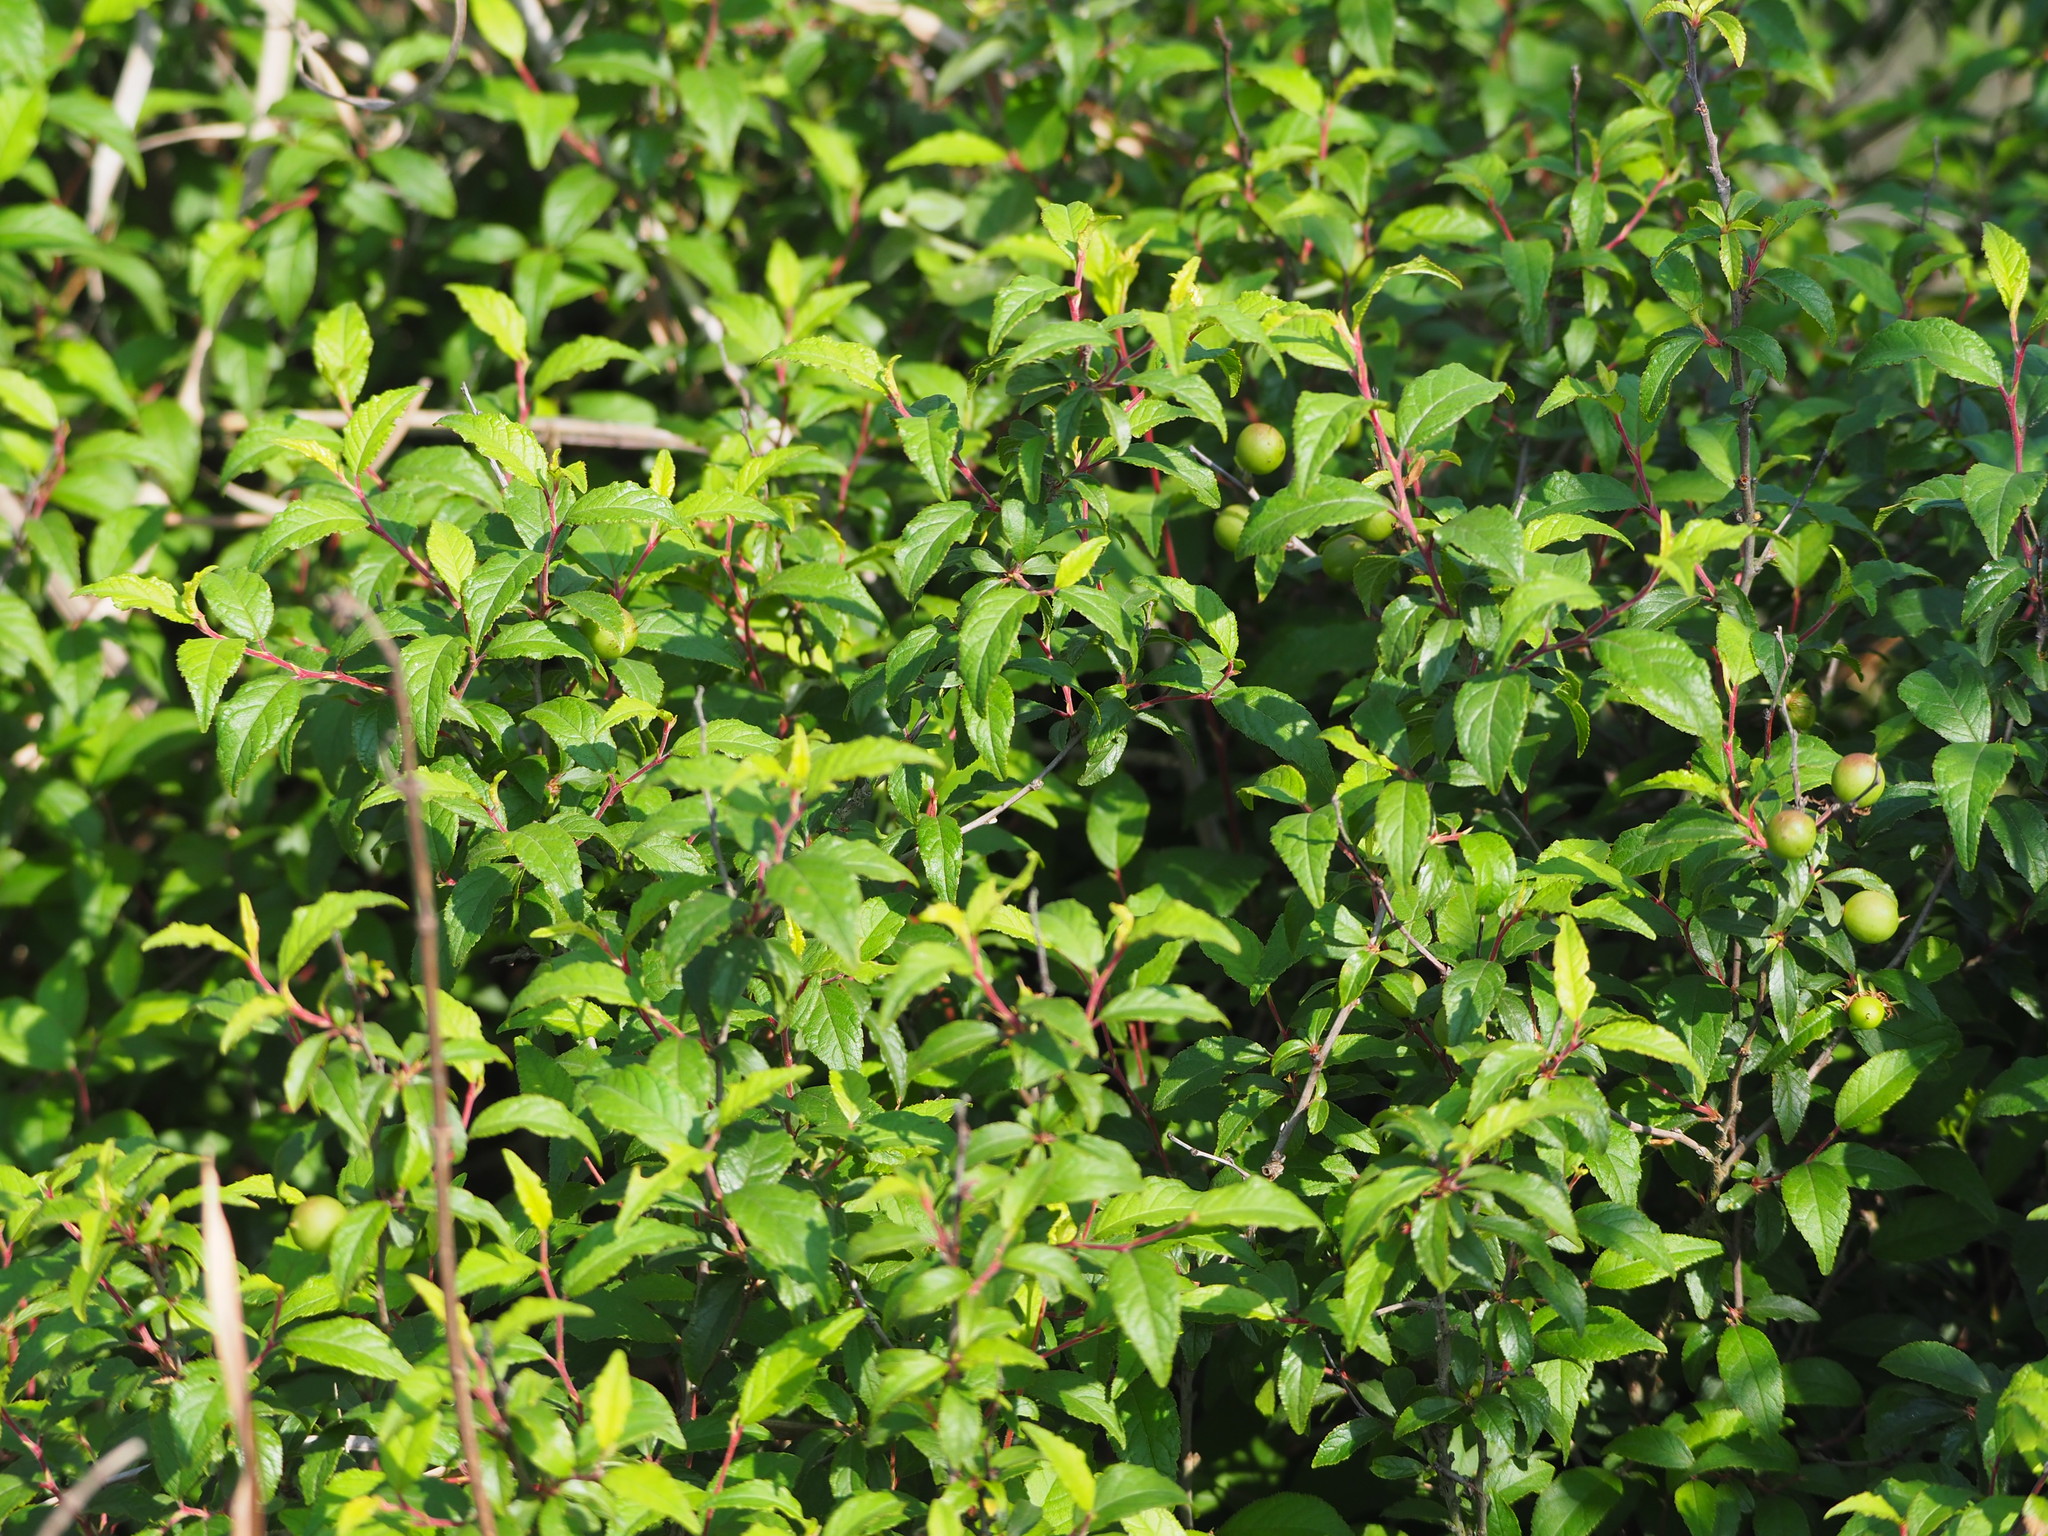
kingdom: Plantae
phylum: Tracheophyta
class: Magnoliopsida
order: Rosales
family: Rosaceae
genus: Prunus
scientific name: Prunus pogonostyla
